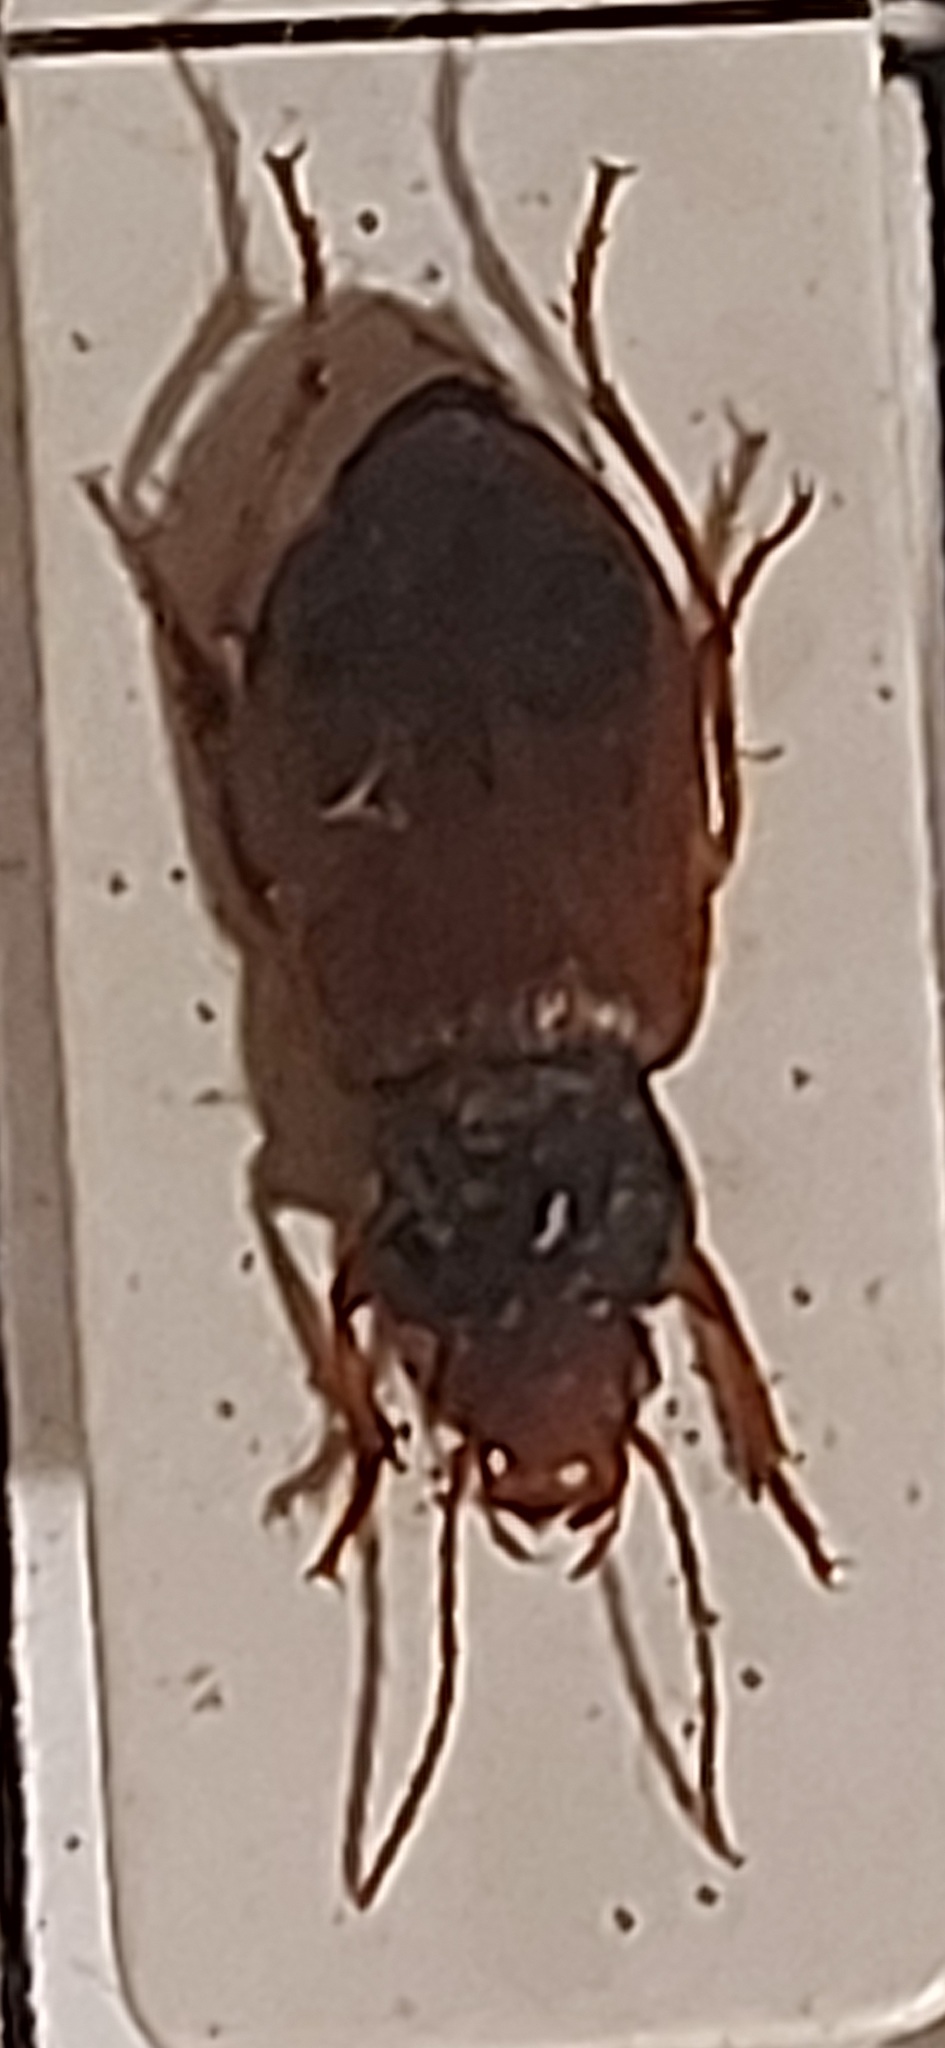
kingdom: Animalia
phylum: Arthropoda
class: Insecta
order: Coleoptera
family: Carabidae
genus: Diachromus
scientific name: Diachromus germanus
